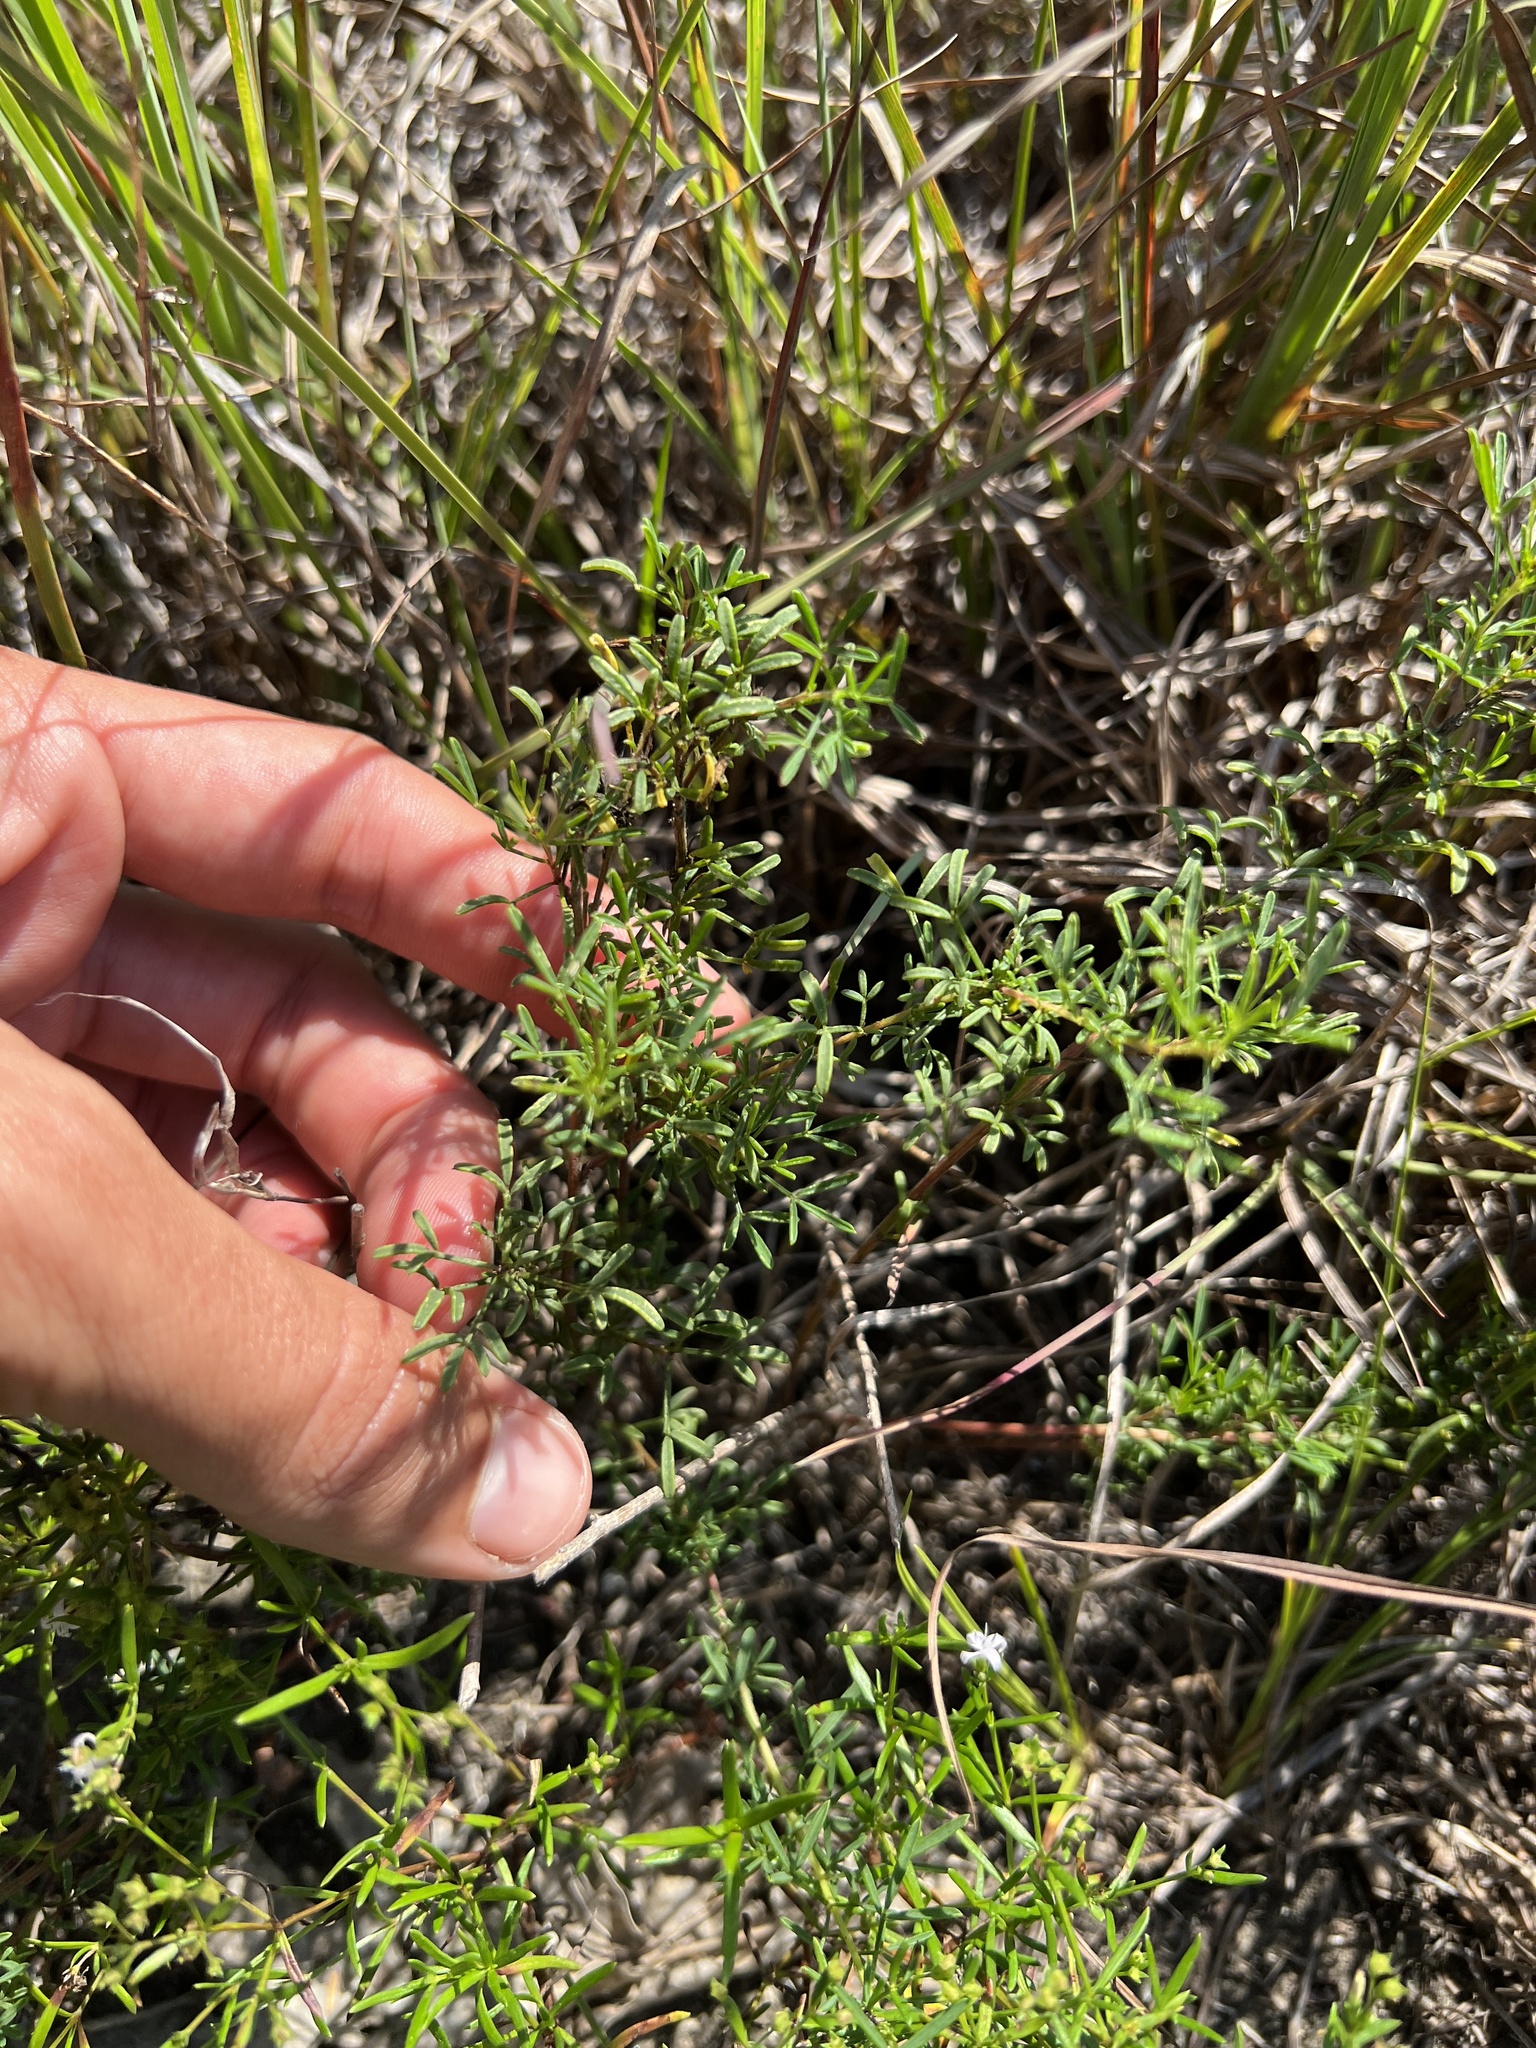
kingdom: Plantae
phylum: Tracheophyta
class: Magnoliopsida
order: Fabales
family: Fabaceae
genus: Dalea
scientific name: Dalea purpurea
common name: Purple prairie-clover
